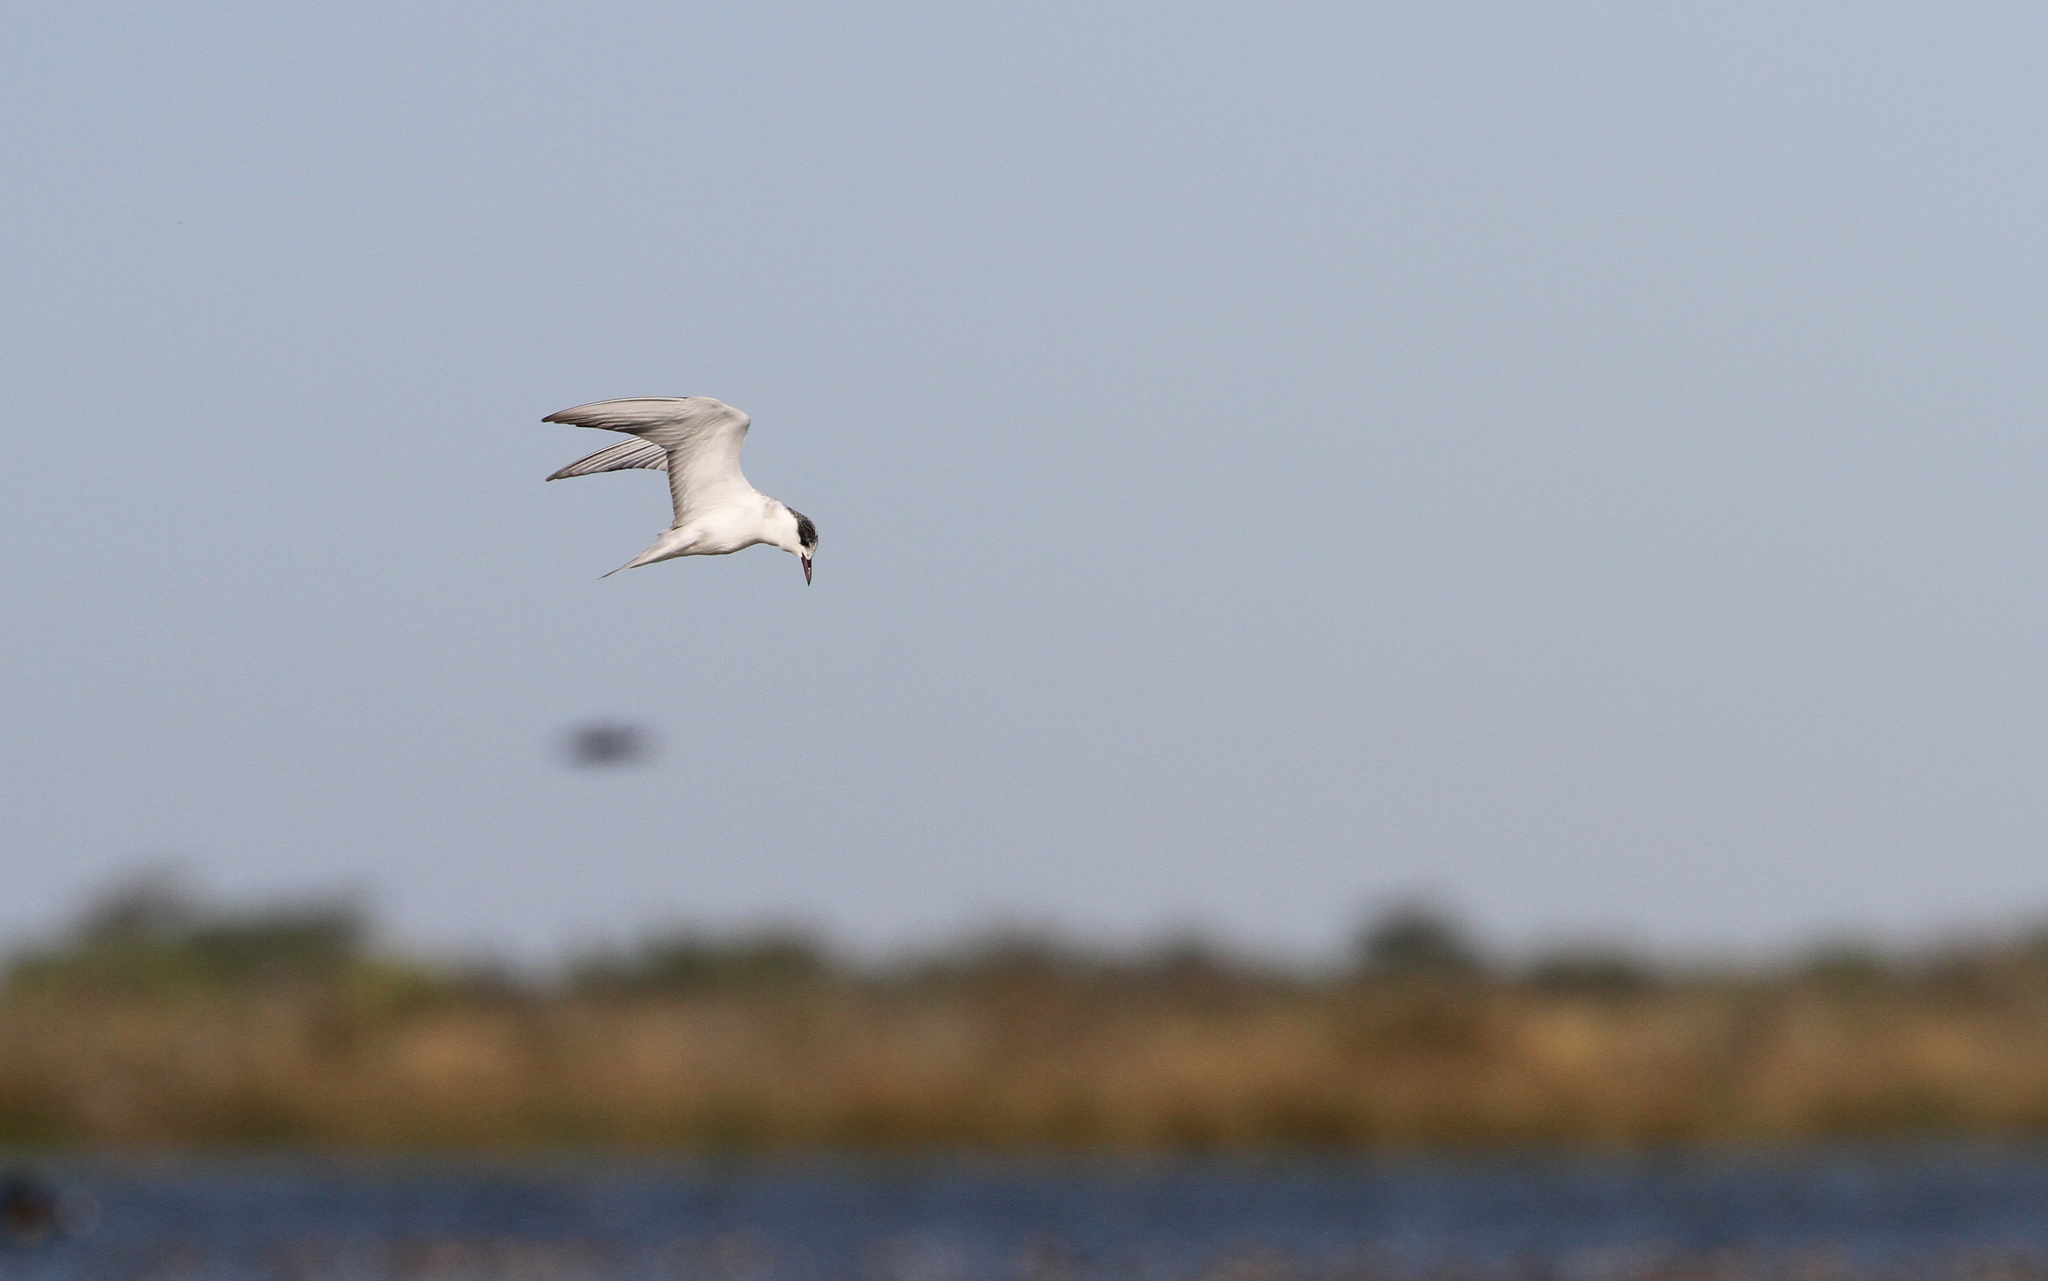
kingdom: Animalia
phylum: Chordata
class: Aves
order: Charadriiformes
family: Laridae
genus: Chlidonias
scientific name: Chlidonias hybrida
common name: Whiskered tern
